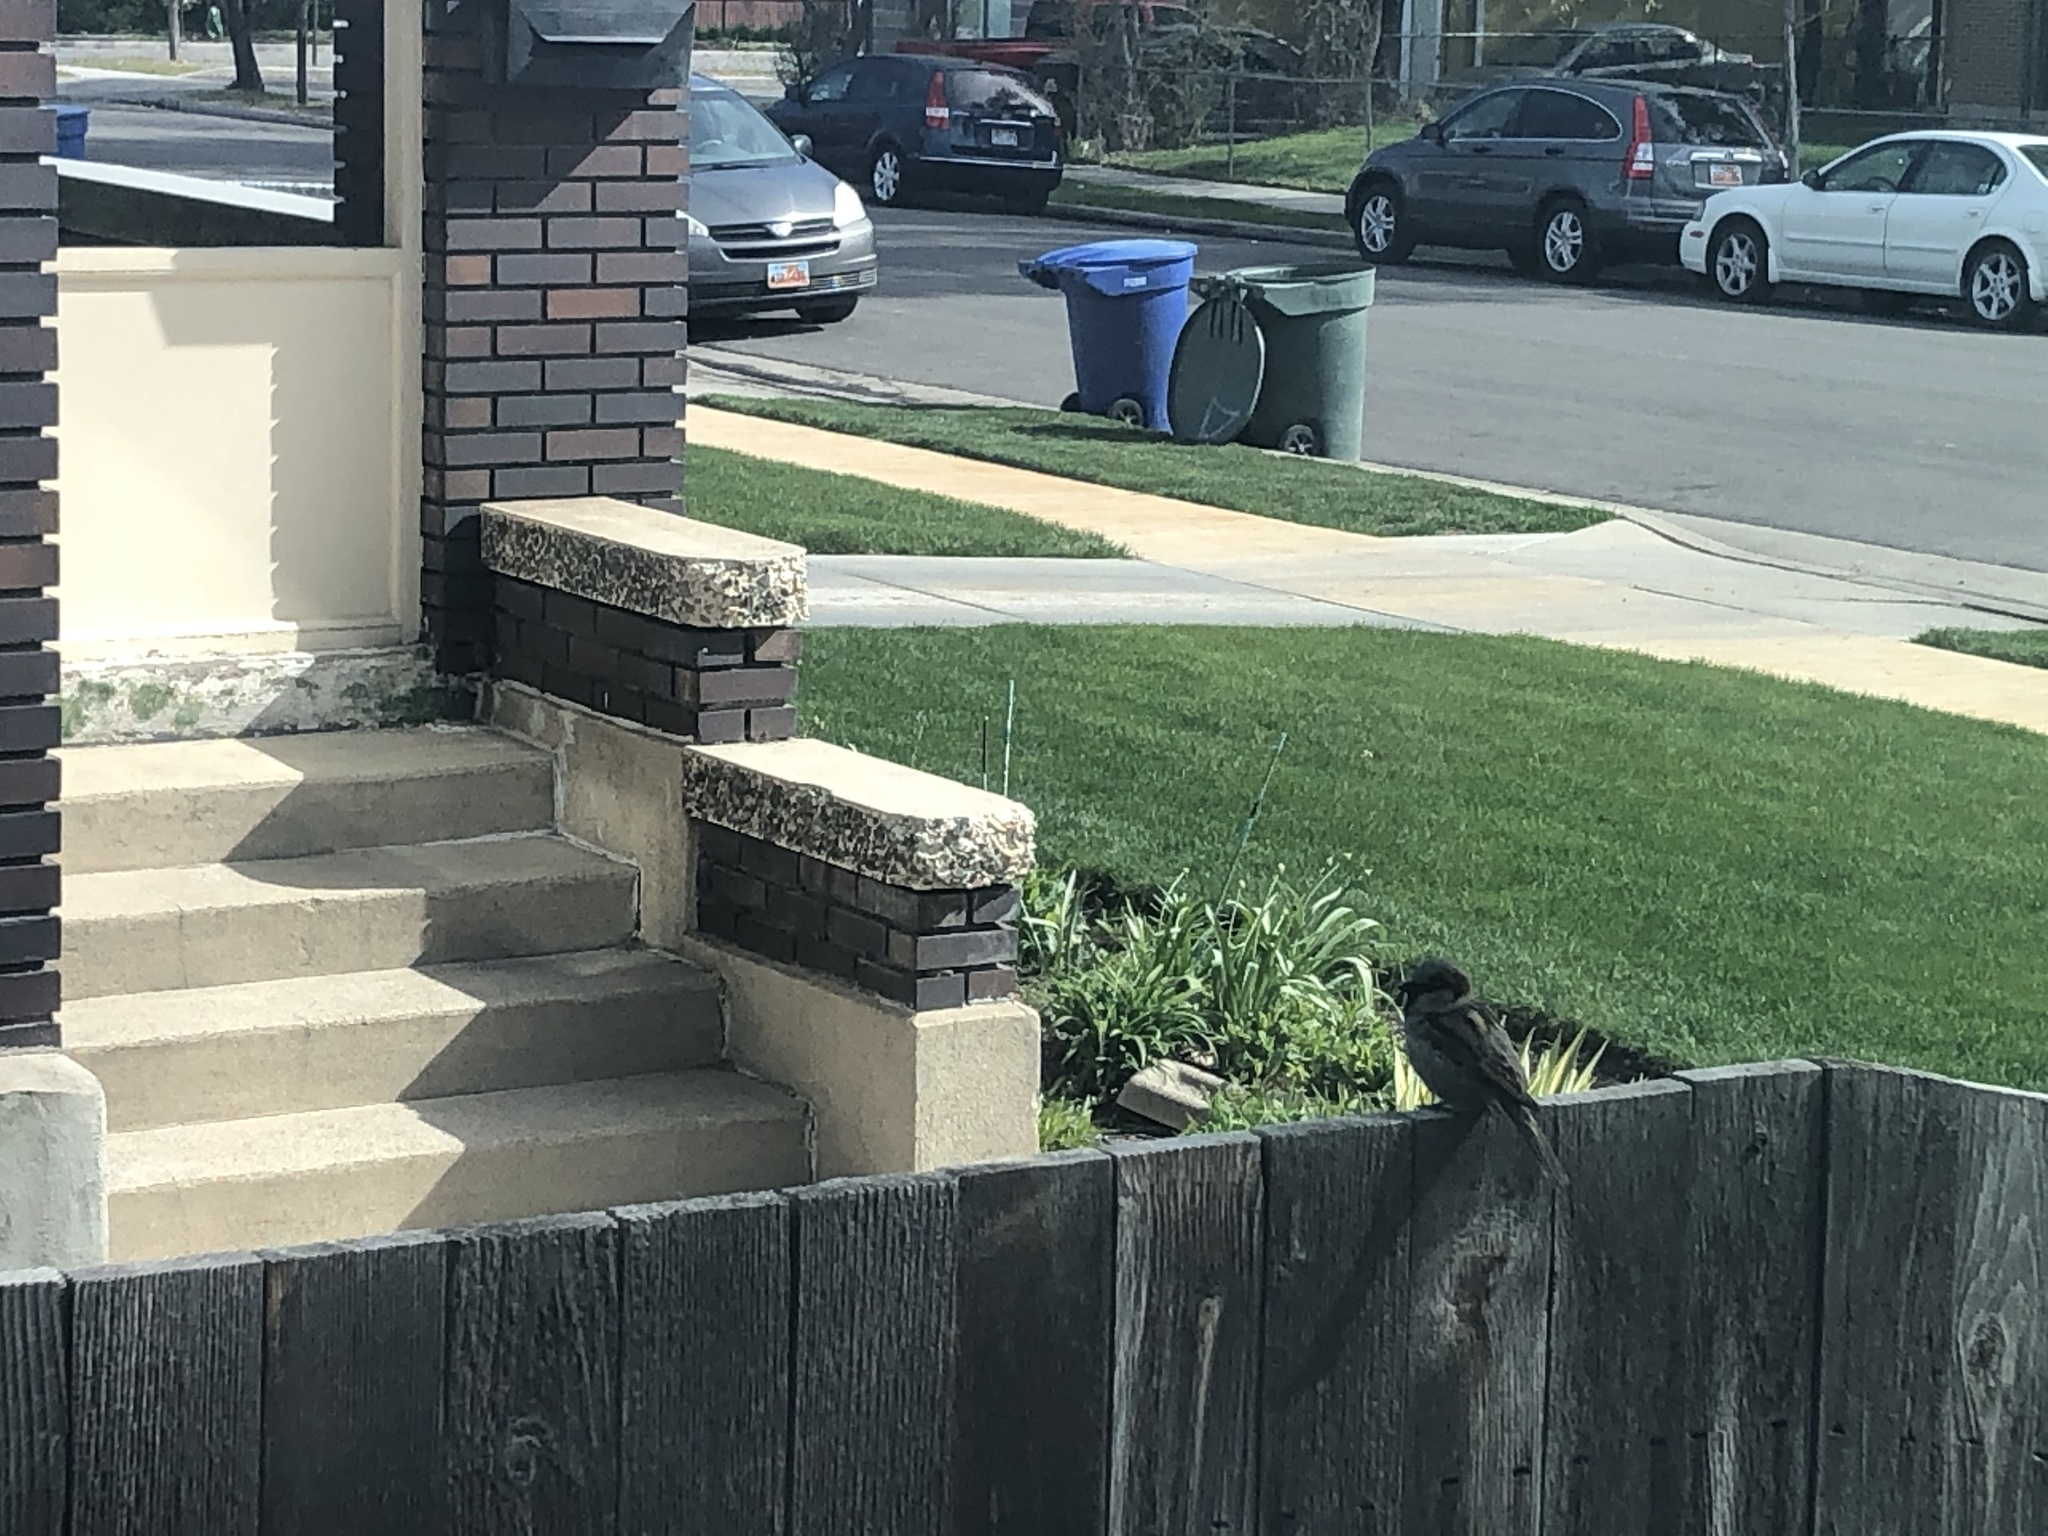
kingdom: Animalia
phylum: Chordata
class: Aves
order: Passeriformes
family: Passeridae
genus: Passer
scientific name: Passer domesticus
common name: House sparrow
